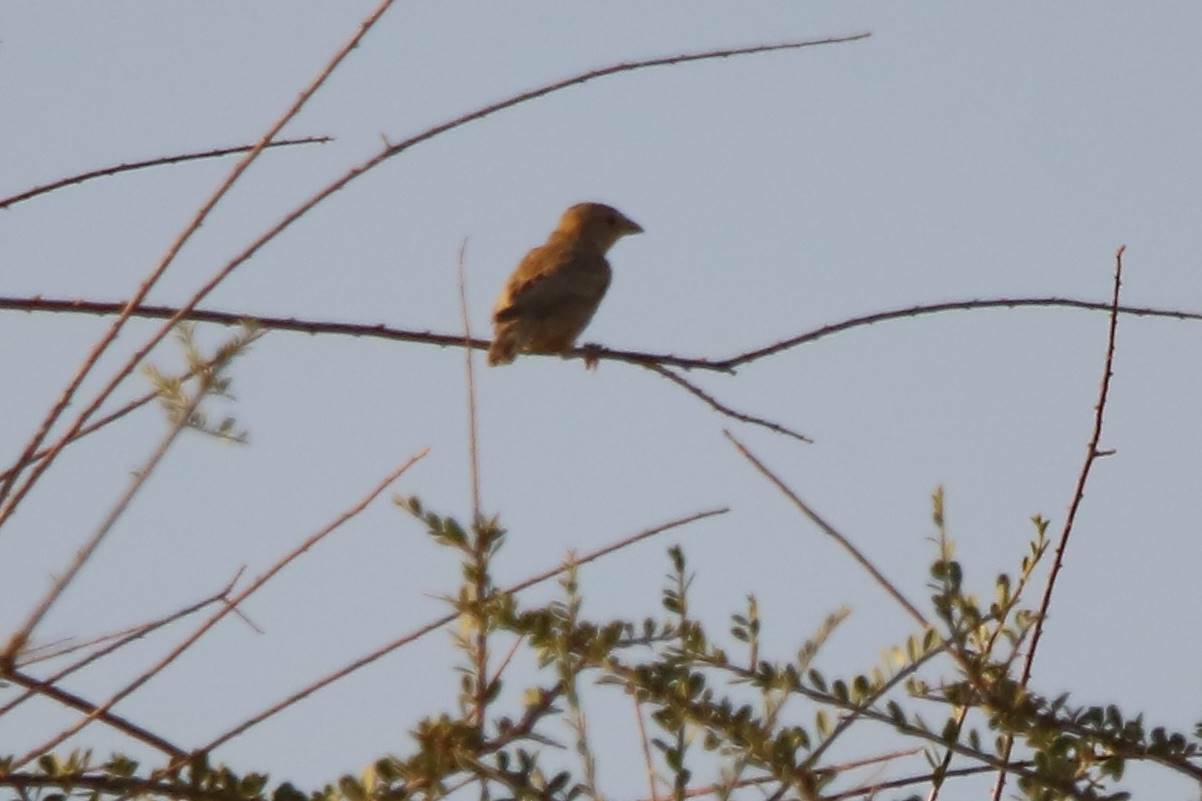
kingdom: Animalia
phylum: Chordata
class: Aves
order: Passeriformes
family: Passeridae
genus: Passer
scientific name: Passer luteus
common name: Sudan golden sparrow
